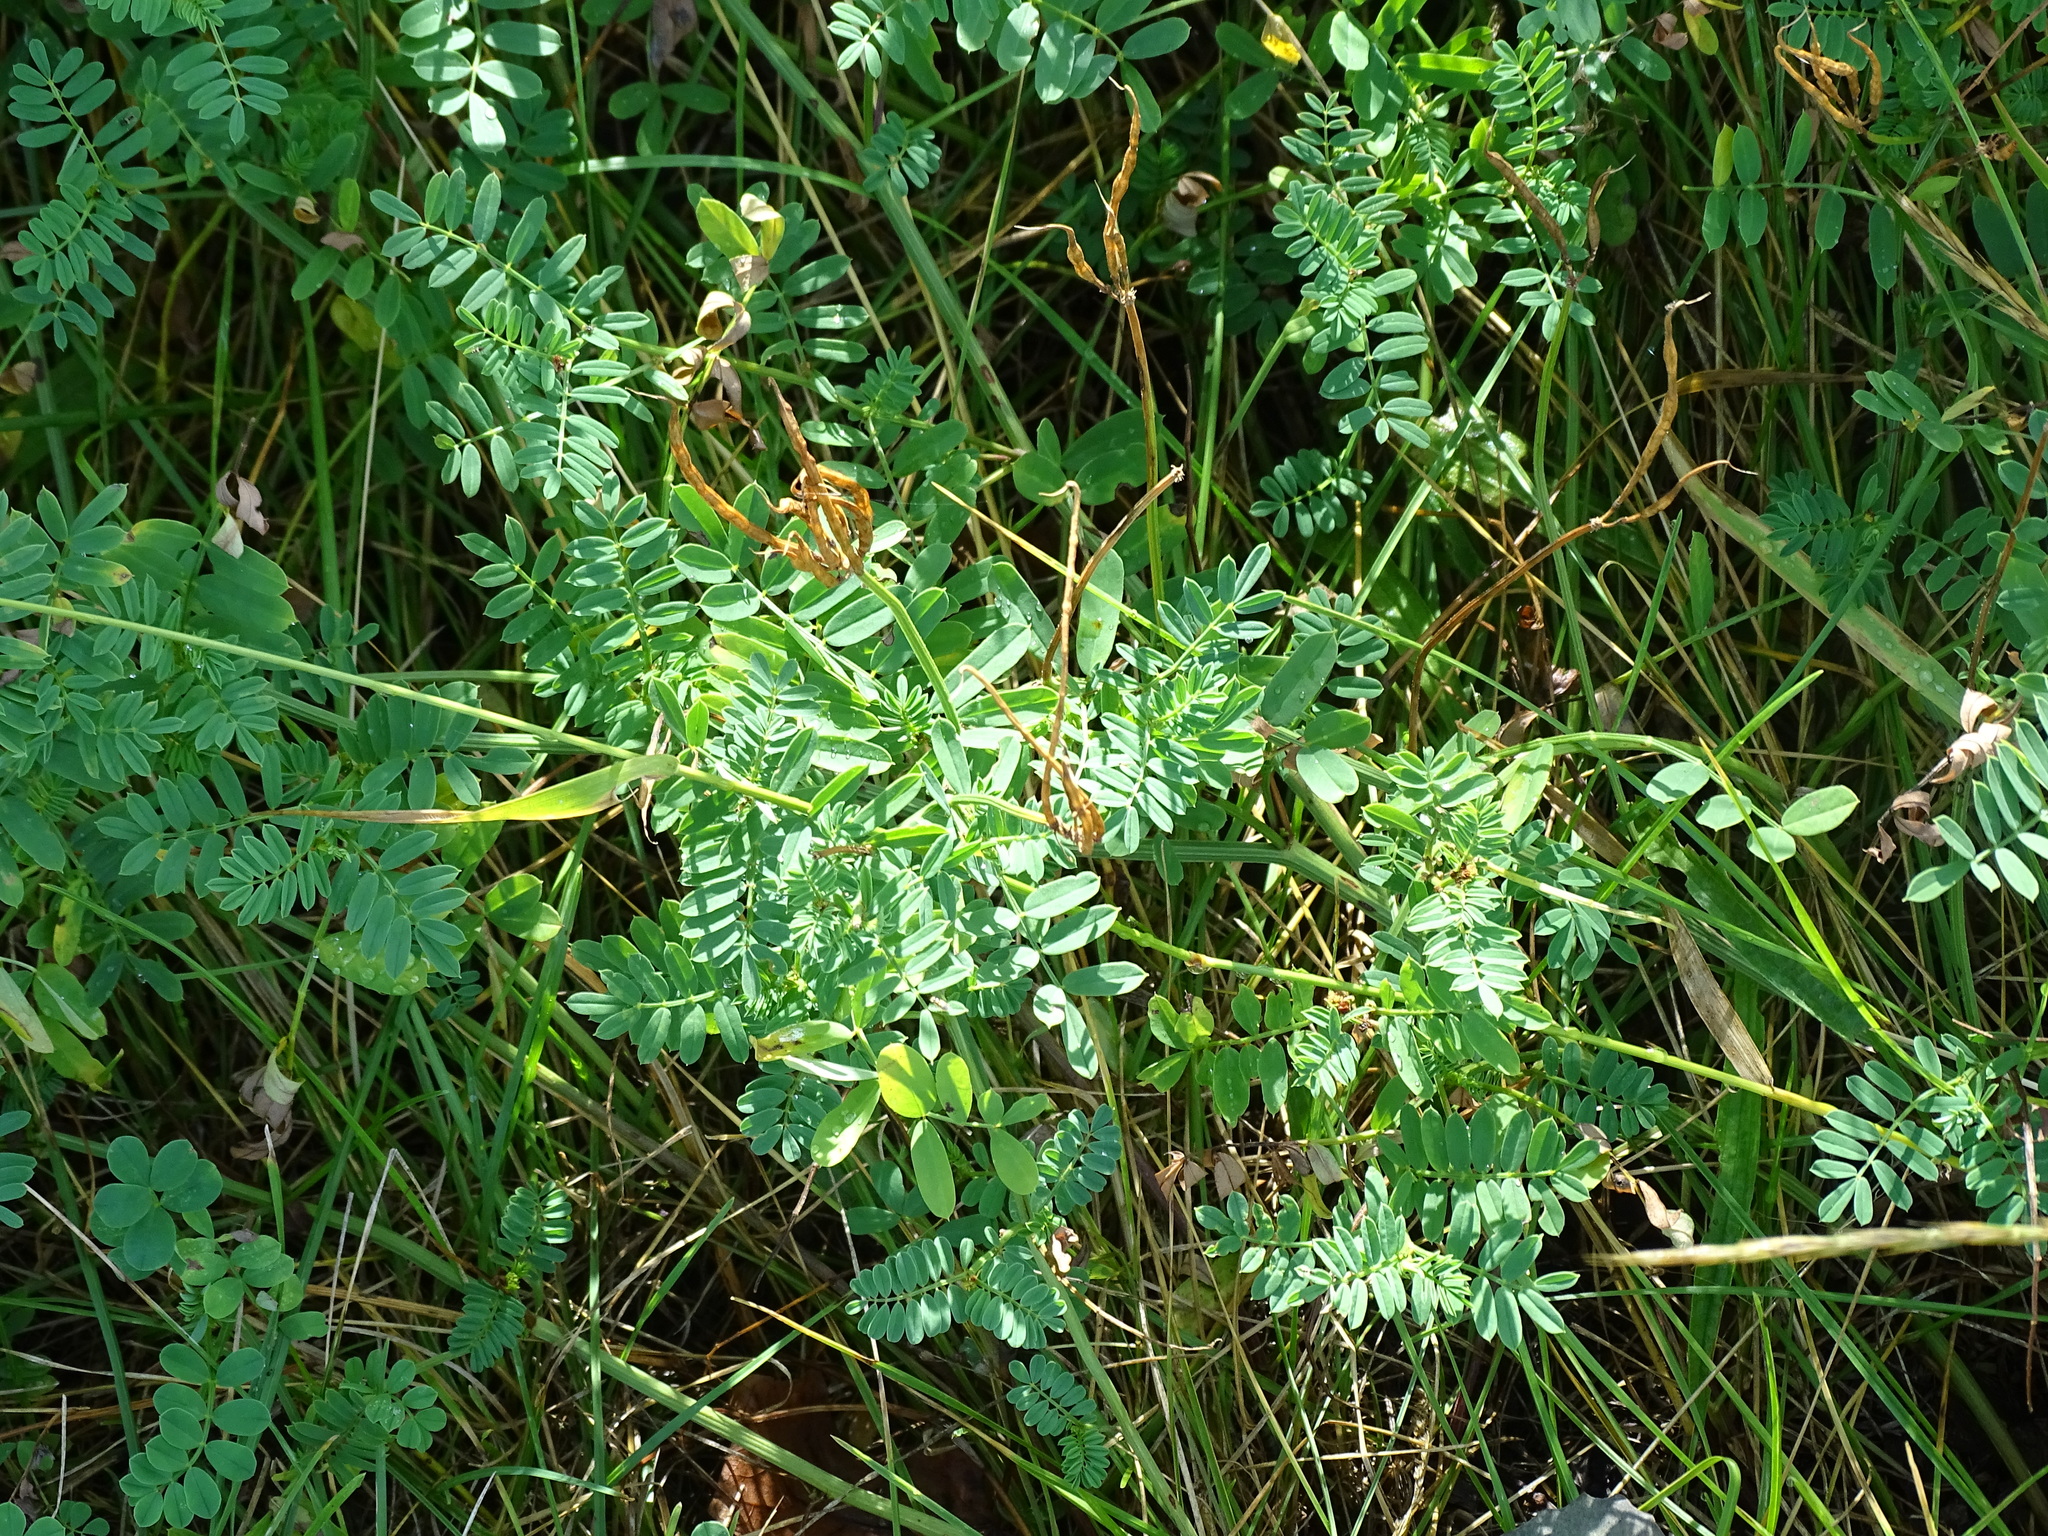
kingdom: Plantae
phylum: Tracheophyta
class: Magnoliopsida
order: Fabales
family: Fabaceae
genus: Coronilla
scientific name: Coronilla varia
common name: Crownvetch
